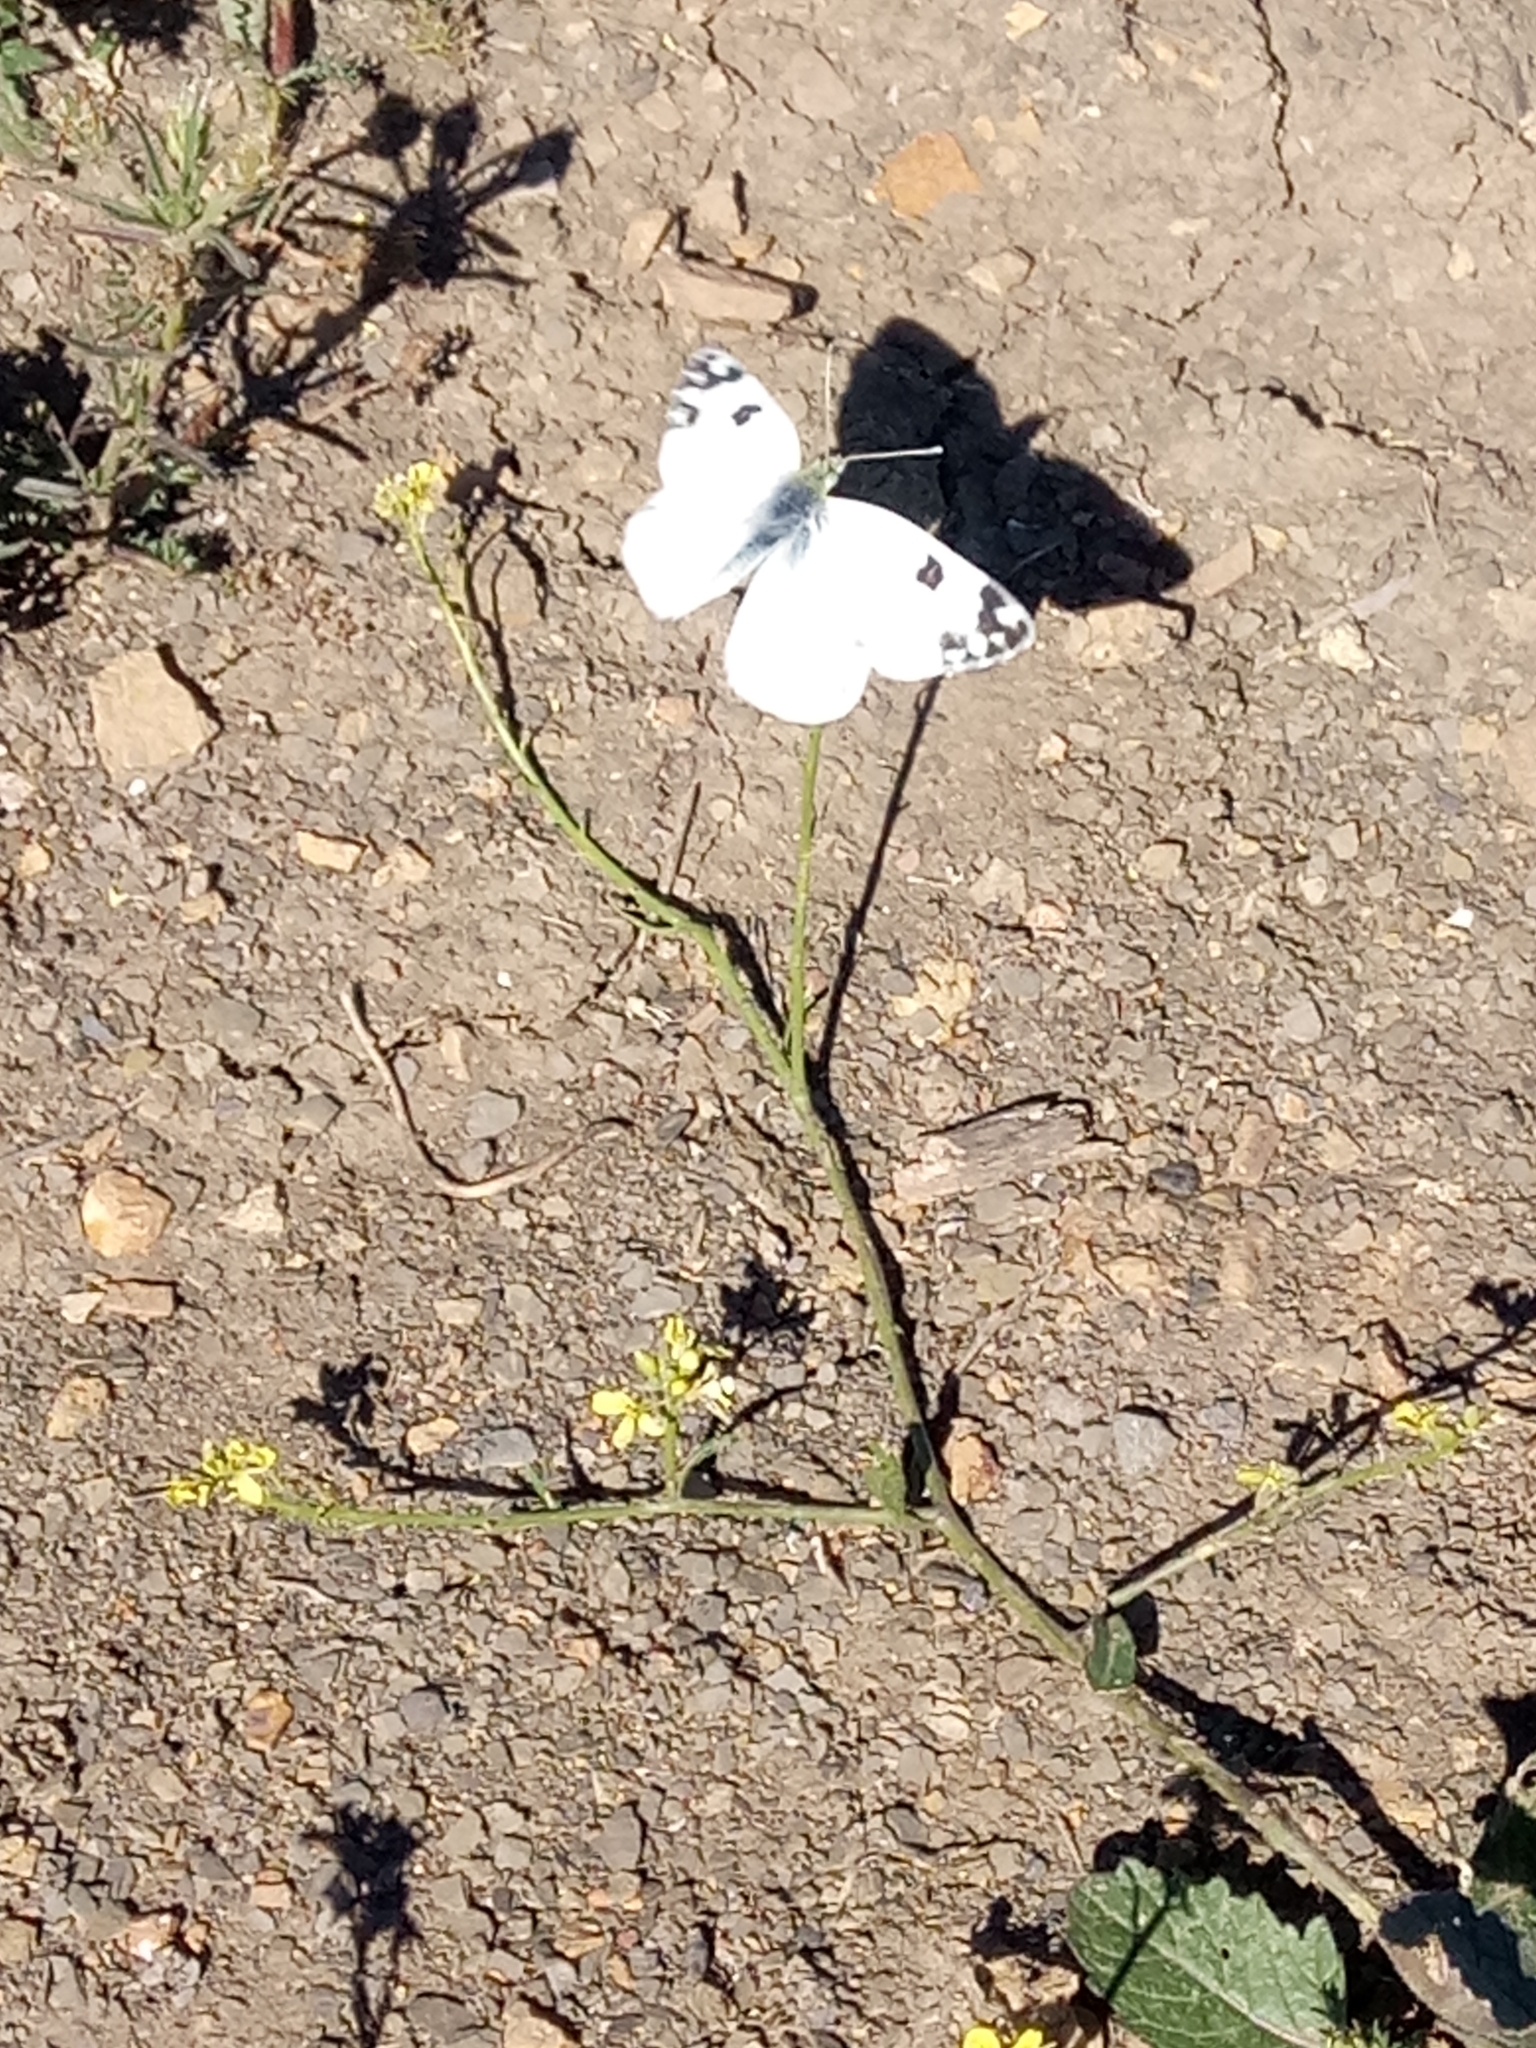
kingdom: Animalia
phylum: Arthropoda
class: Insecta
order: Lepidoptera
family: Pieridae
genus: Pontia
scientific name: Pontia daplidice
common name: Bath white
